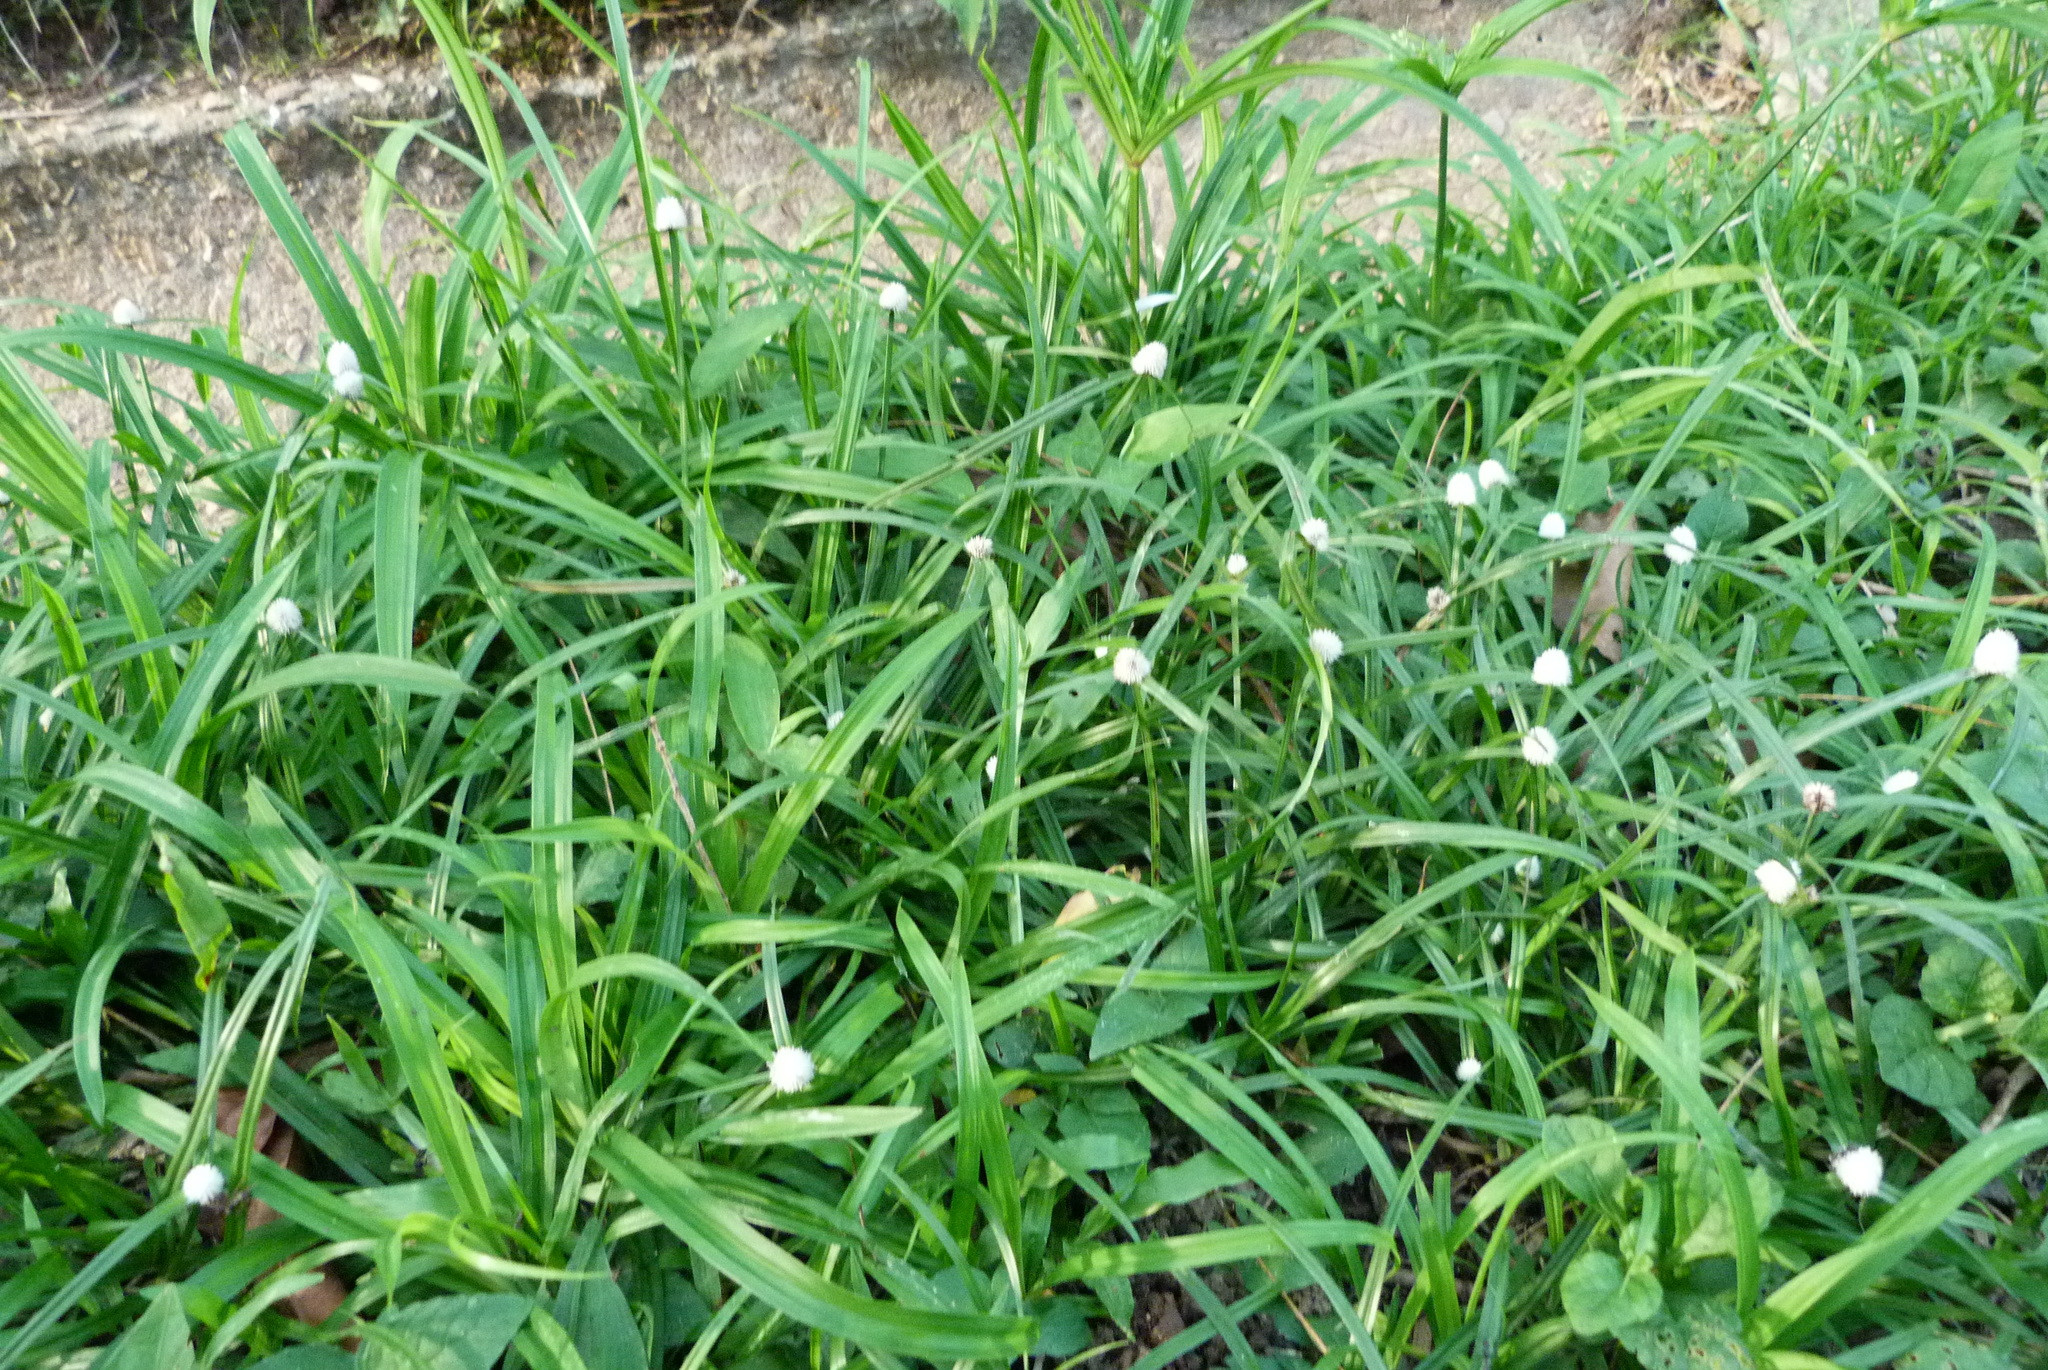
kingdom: Plantae
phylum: Tracheophyta
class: Liliopsida
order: Poales
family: Cyperaceae
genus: Cyperus
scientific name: Cyperus mindorensis
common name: Flatsedge
